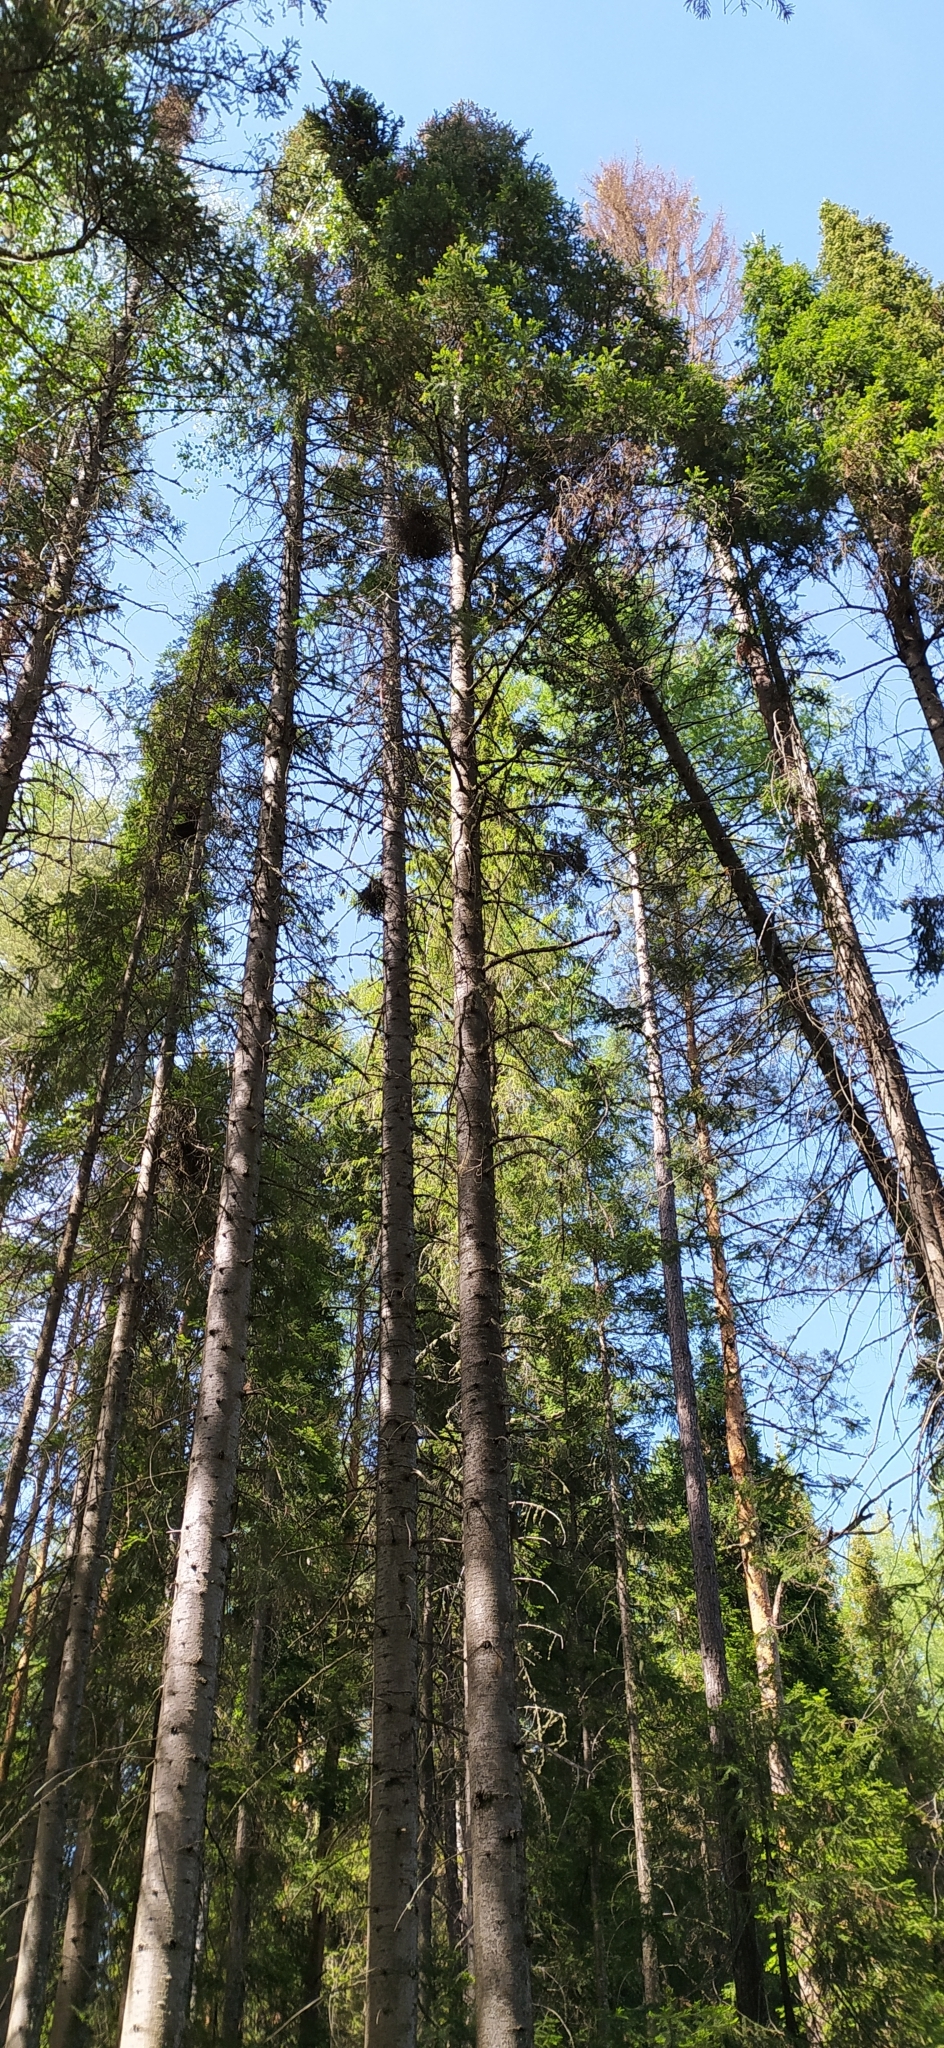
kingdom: Plantae
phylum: Tracheophyta
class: Pinopsida
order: Pinales
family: Pinaceae
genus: Abies
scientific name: Abies sibirica
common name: Siberian fir
